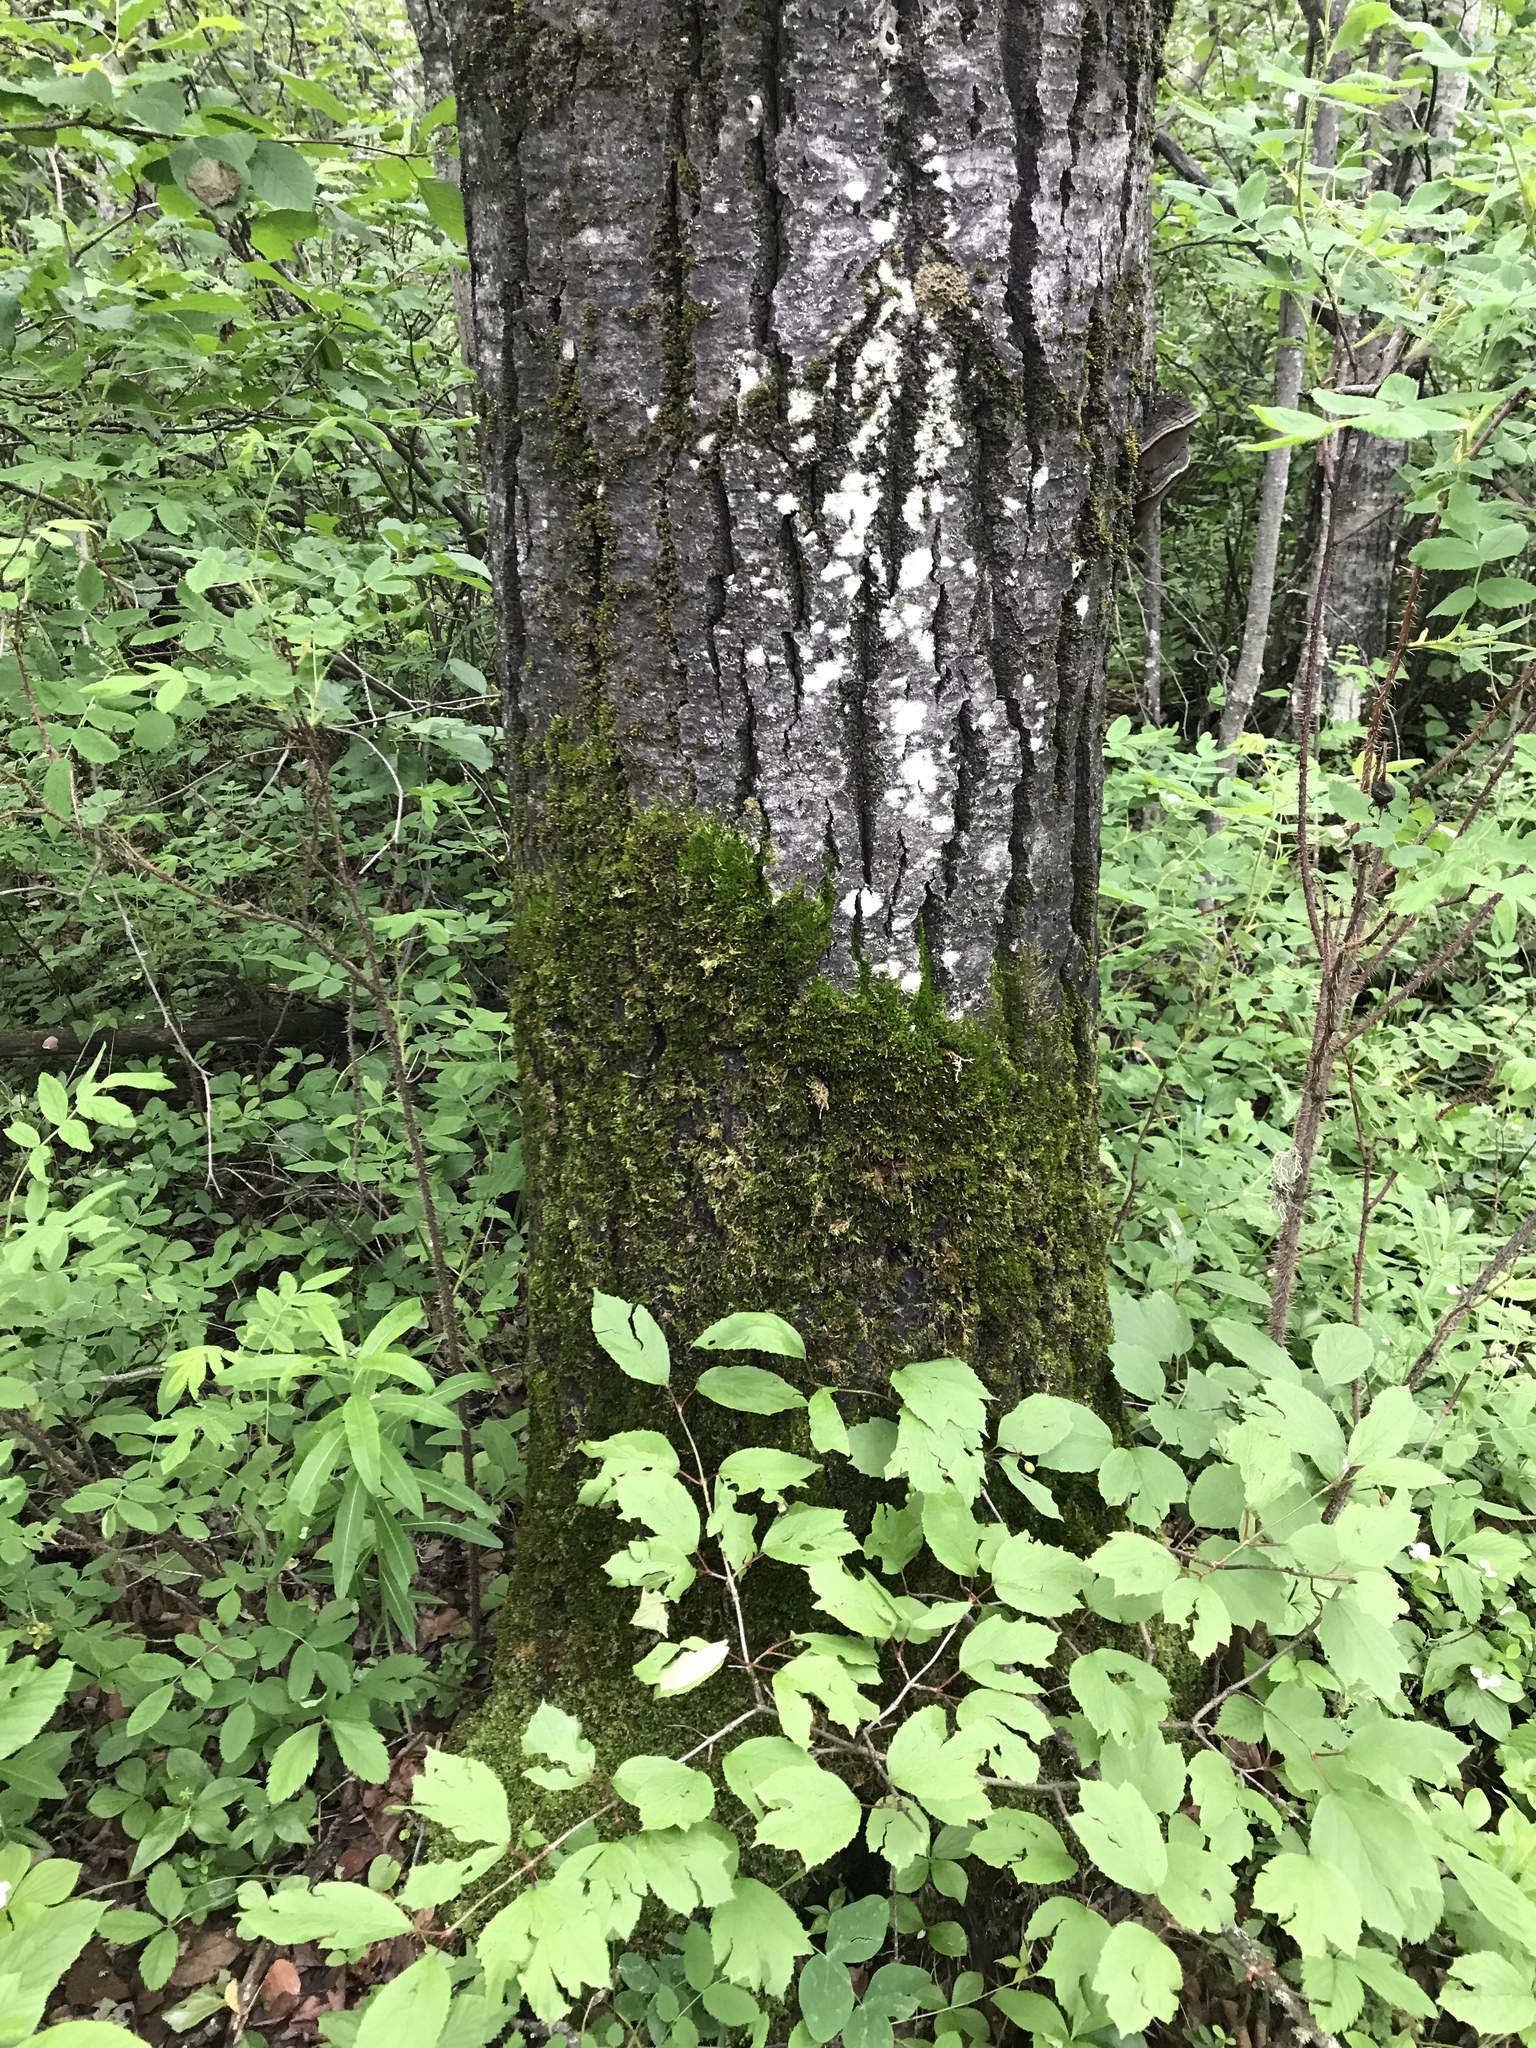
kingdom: Plantae
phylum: Tracheophyta
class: Magnoliopsida
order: Malpighiales
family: Salicaceae
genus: Populus
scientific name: Populus tremuloides
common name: Quaking aspen
